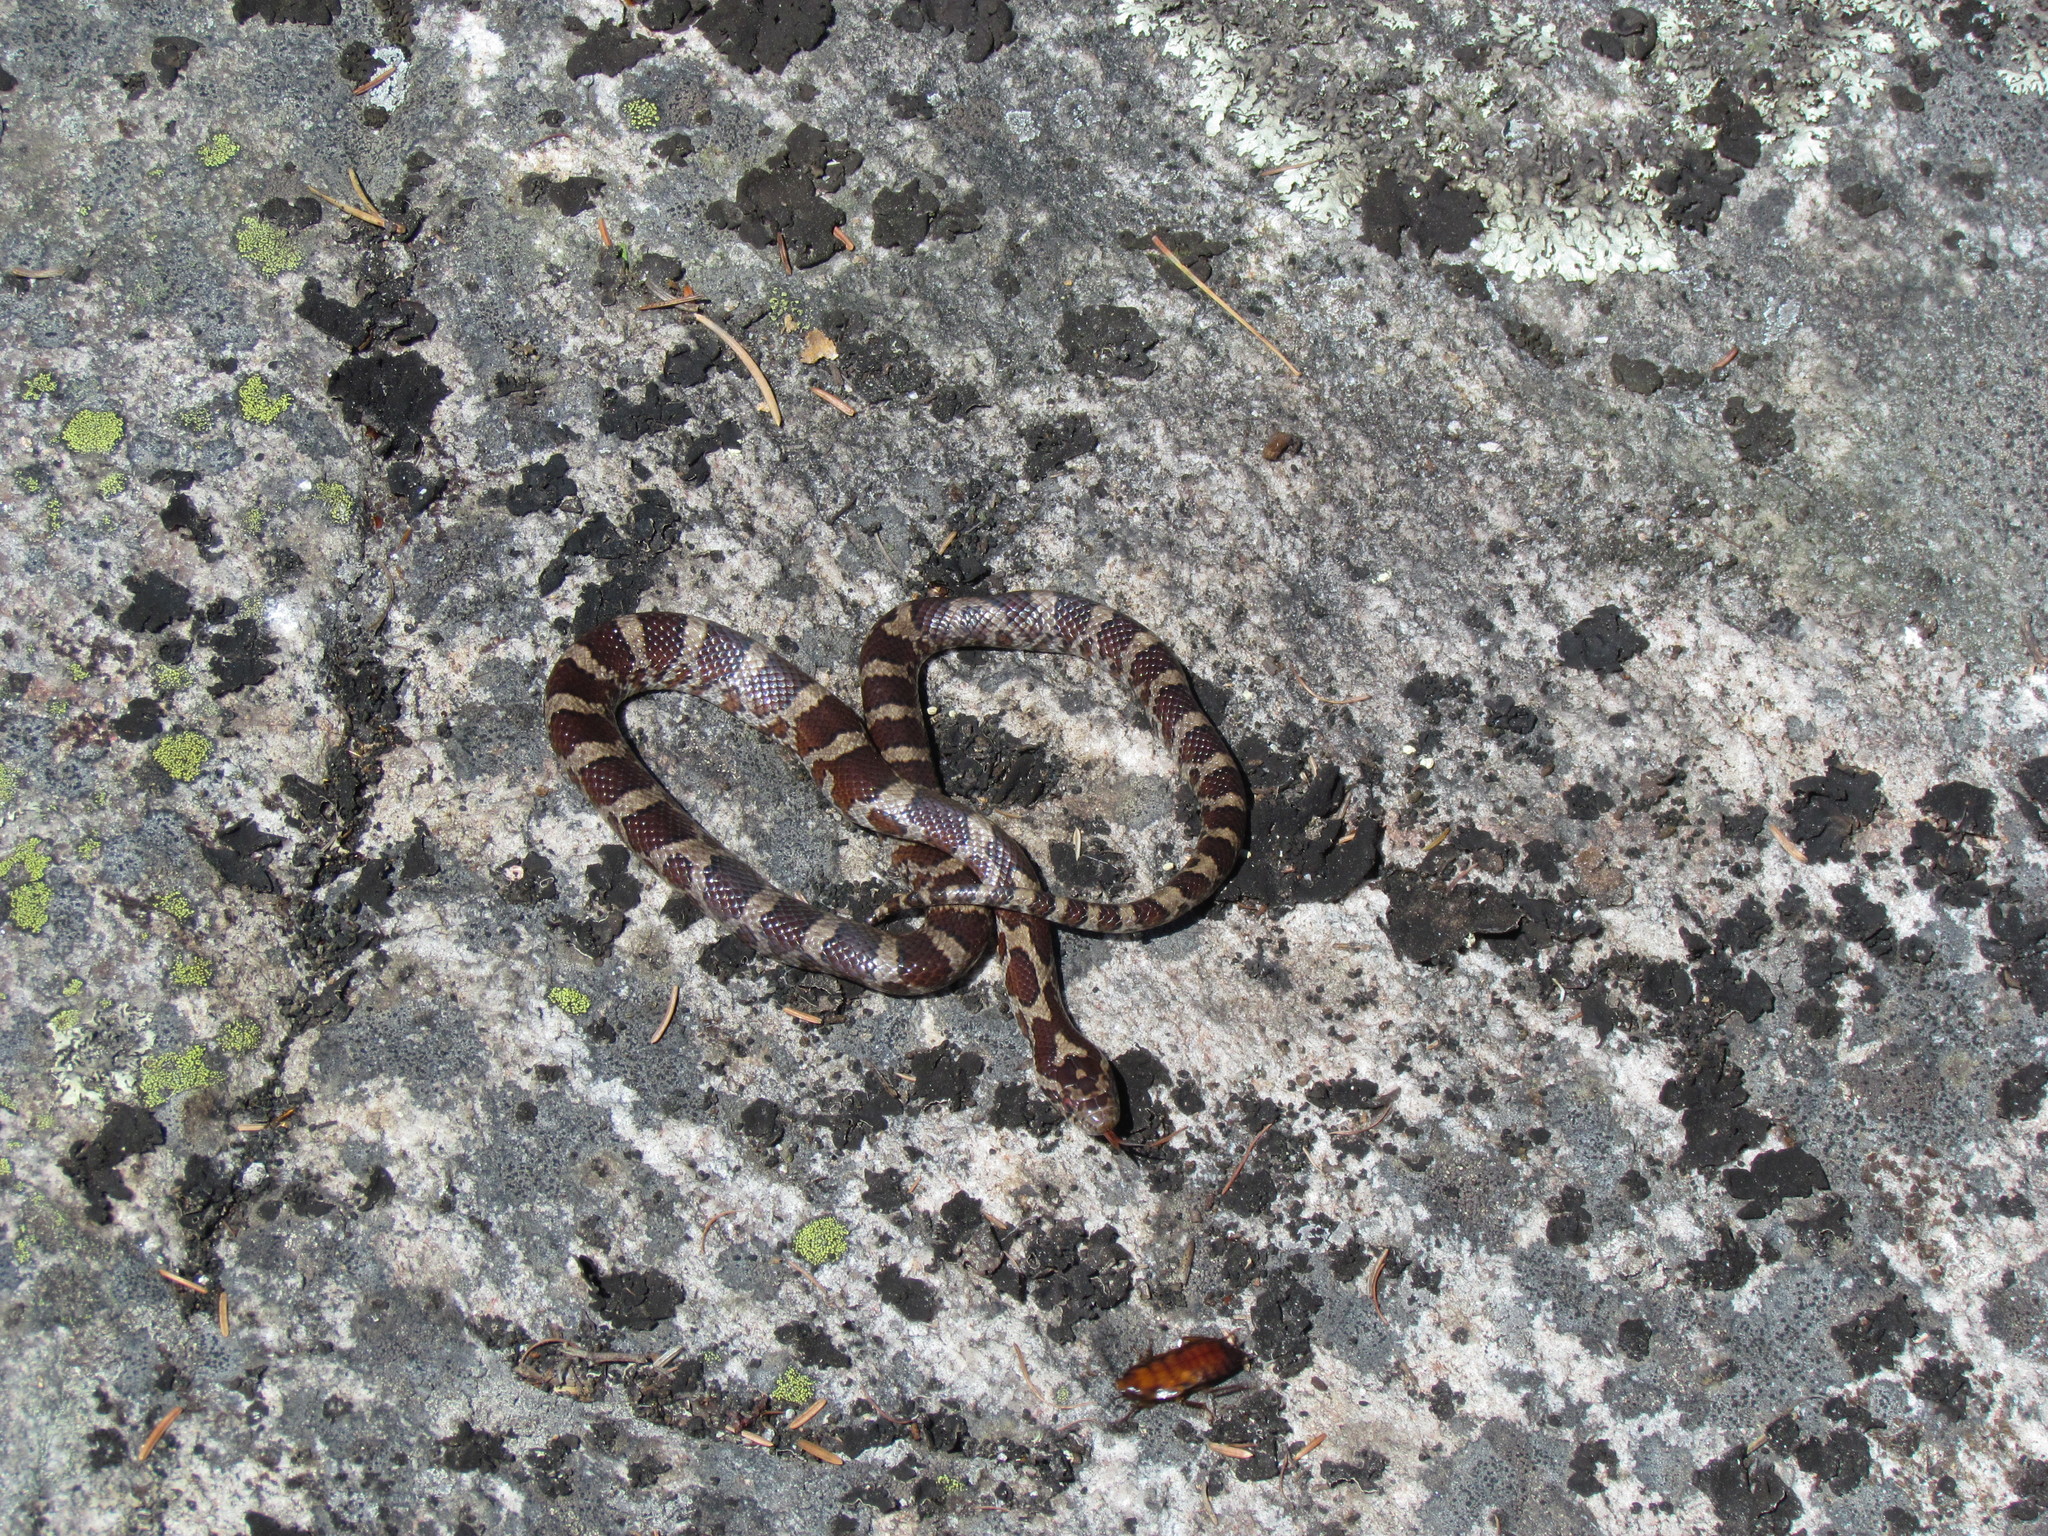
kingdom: Animalia
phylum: Chordata
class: Squamata
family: Colubridae
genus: Lampropeltis
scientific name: Lampropeltis triangulum
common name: Eastern milksnake
